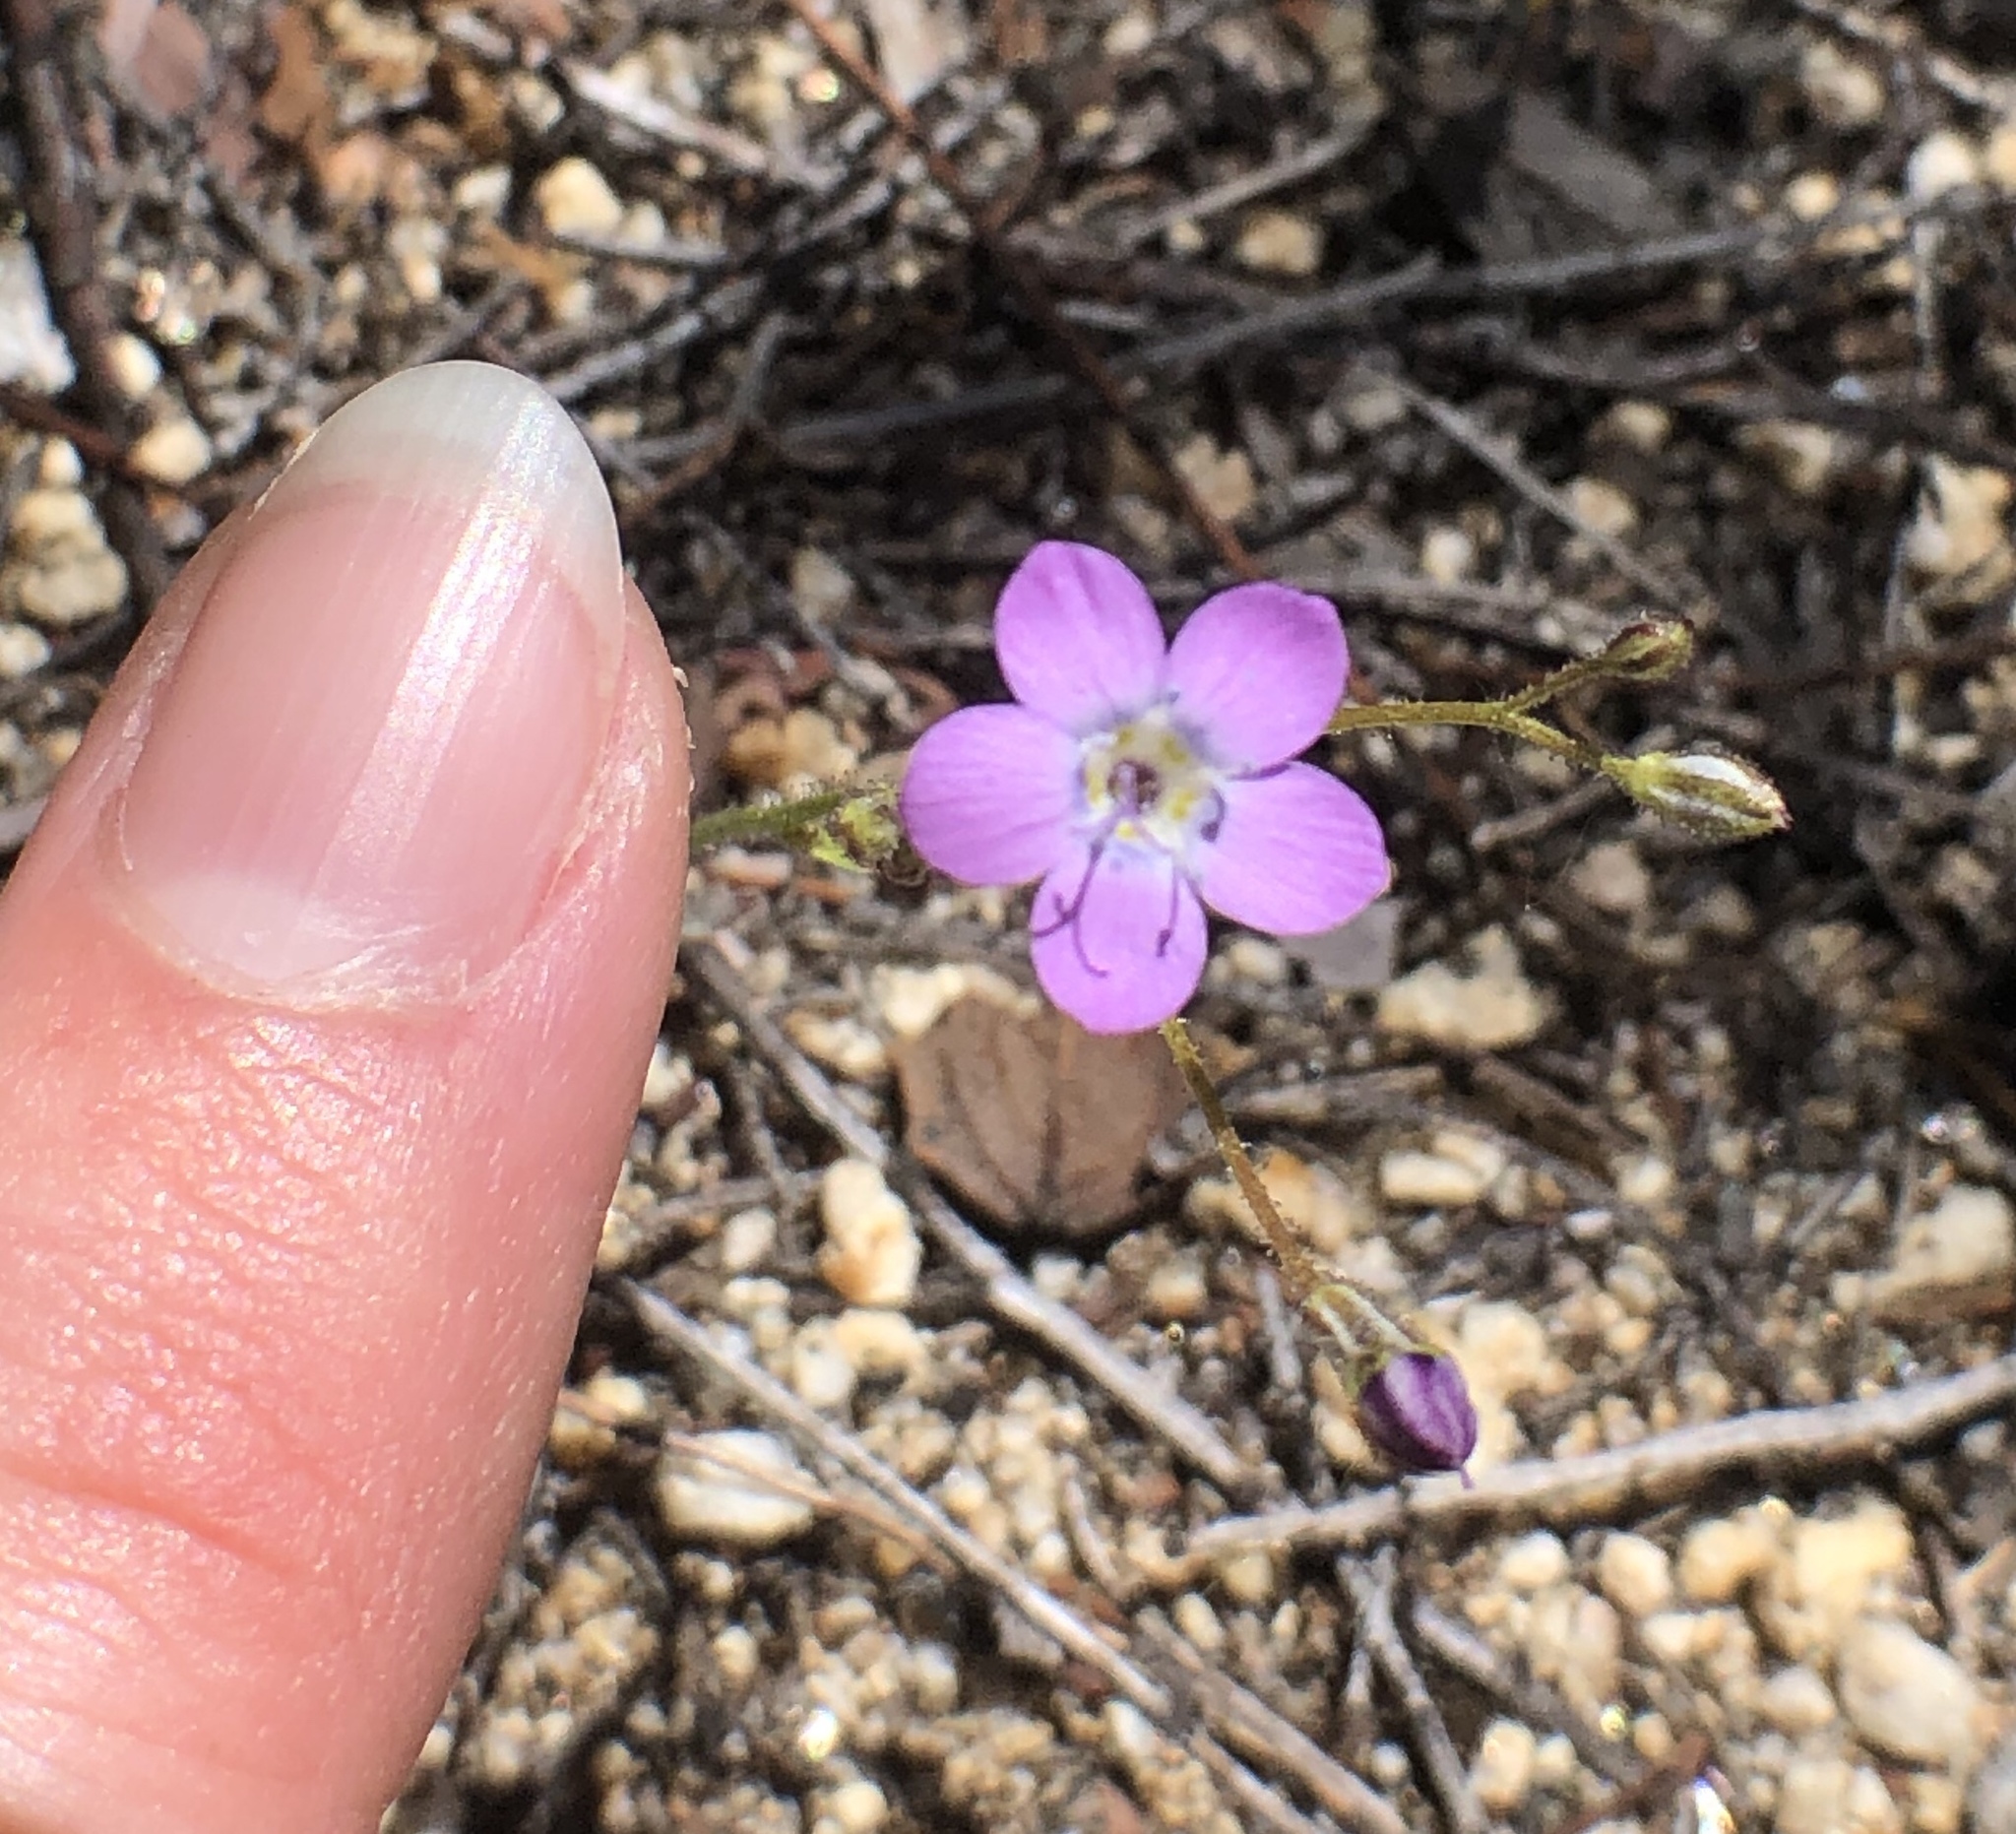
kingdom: Plantae
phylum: Tracheophyta
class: Magnoliopsida
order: Ericales
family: Polemoniaceae
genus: Gilia
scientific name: Gilia diegensis
